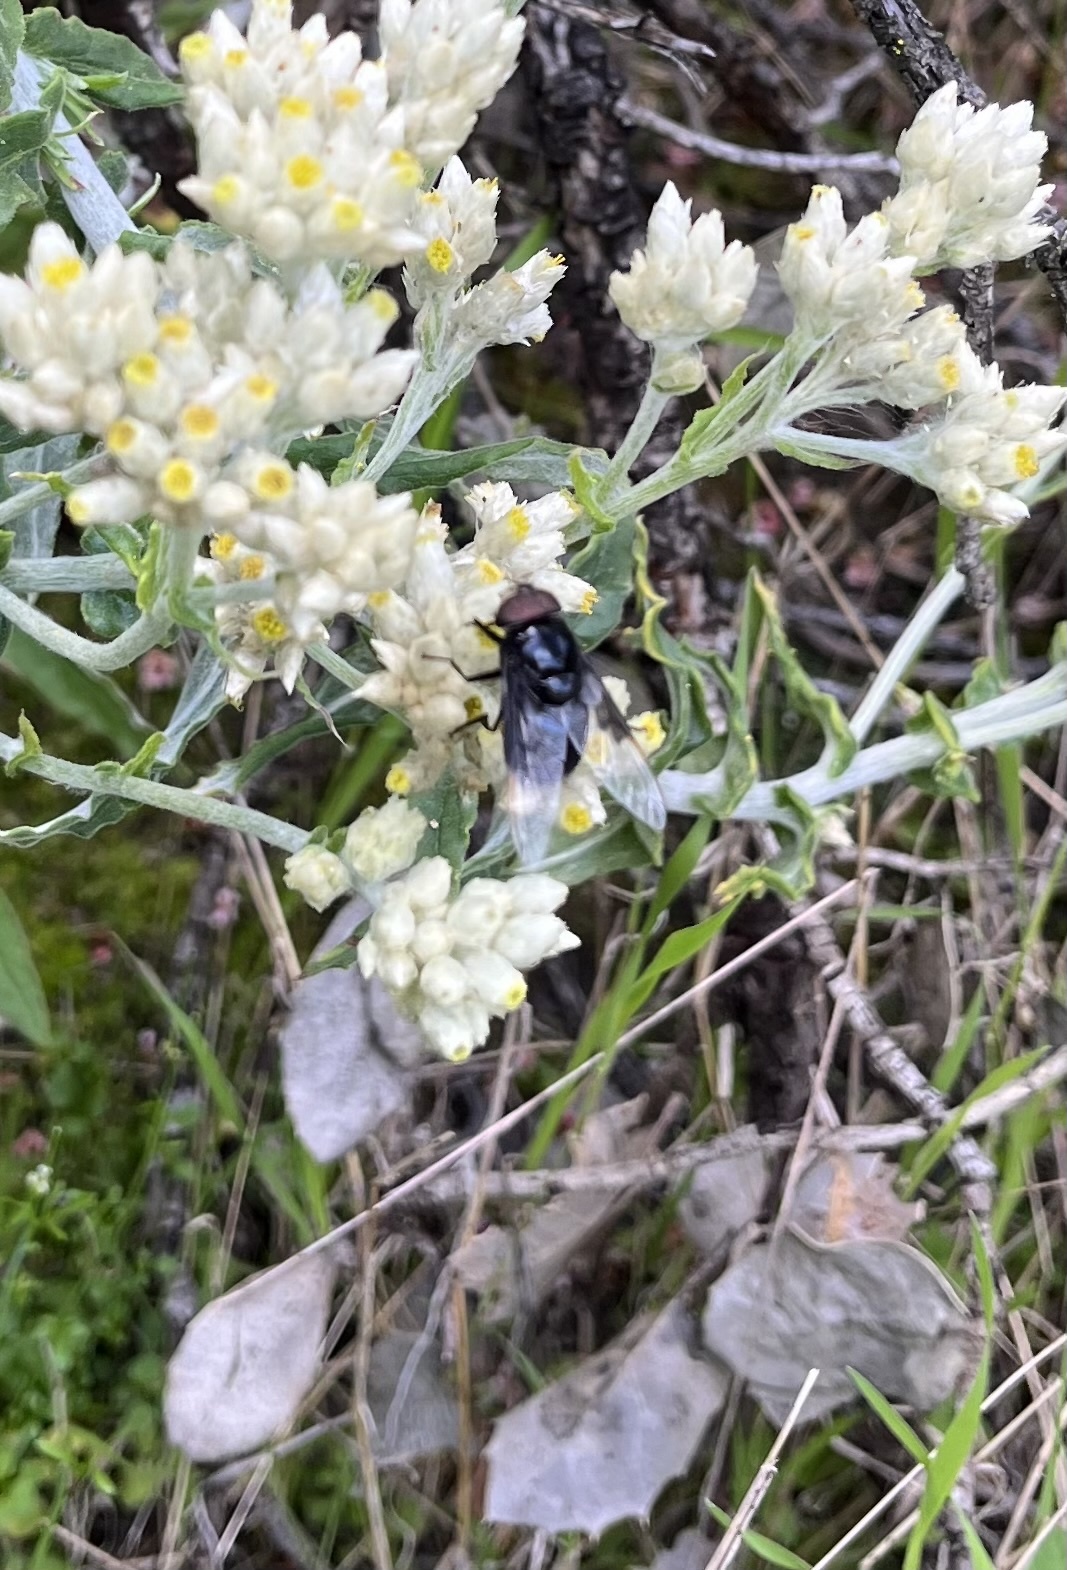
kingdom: Animalia
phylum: Arthropoda
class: Insecta
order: Diptera
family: Syrphidae
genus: Copestylum
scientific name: Copestylum
